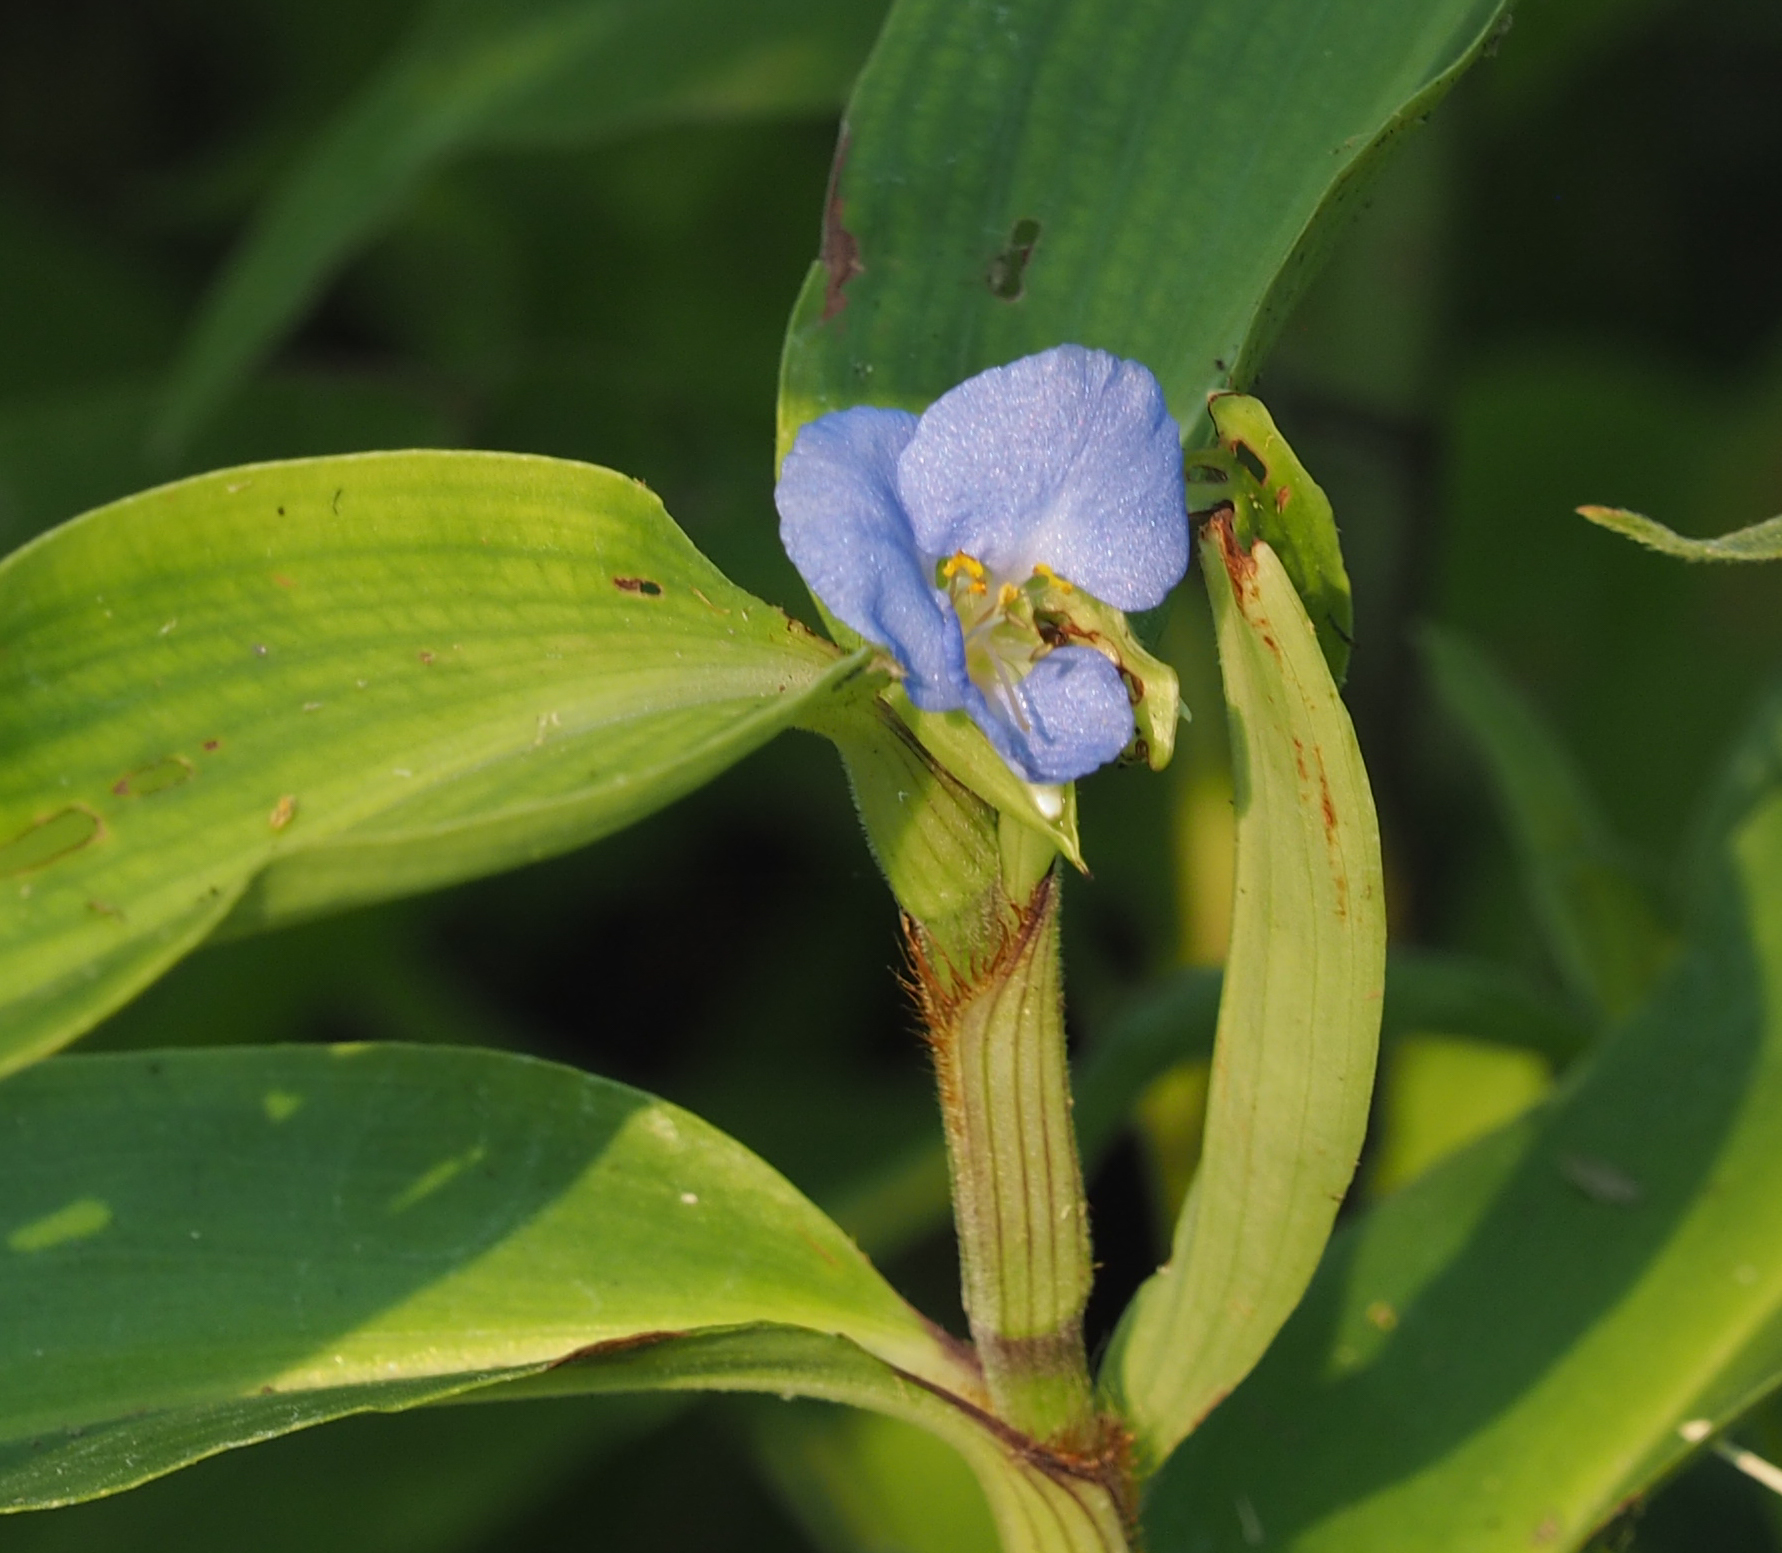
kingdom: Plantae
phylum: Tracheophyta
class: Liliopsida
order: Commelinales
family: Commelinaceae
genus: Commelina
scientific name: Commelina virginica
